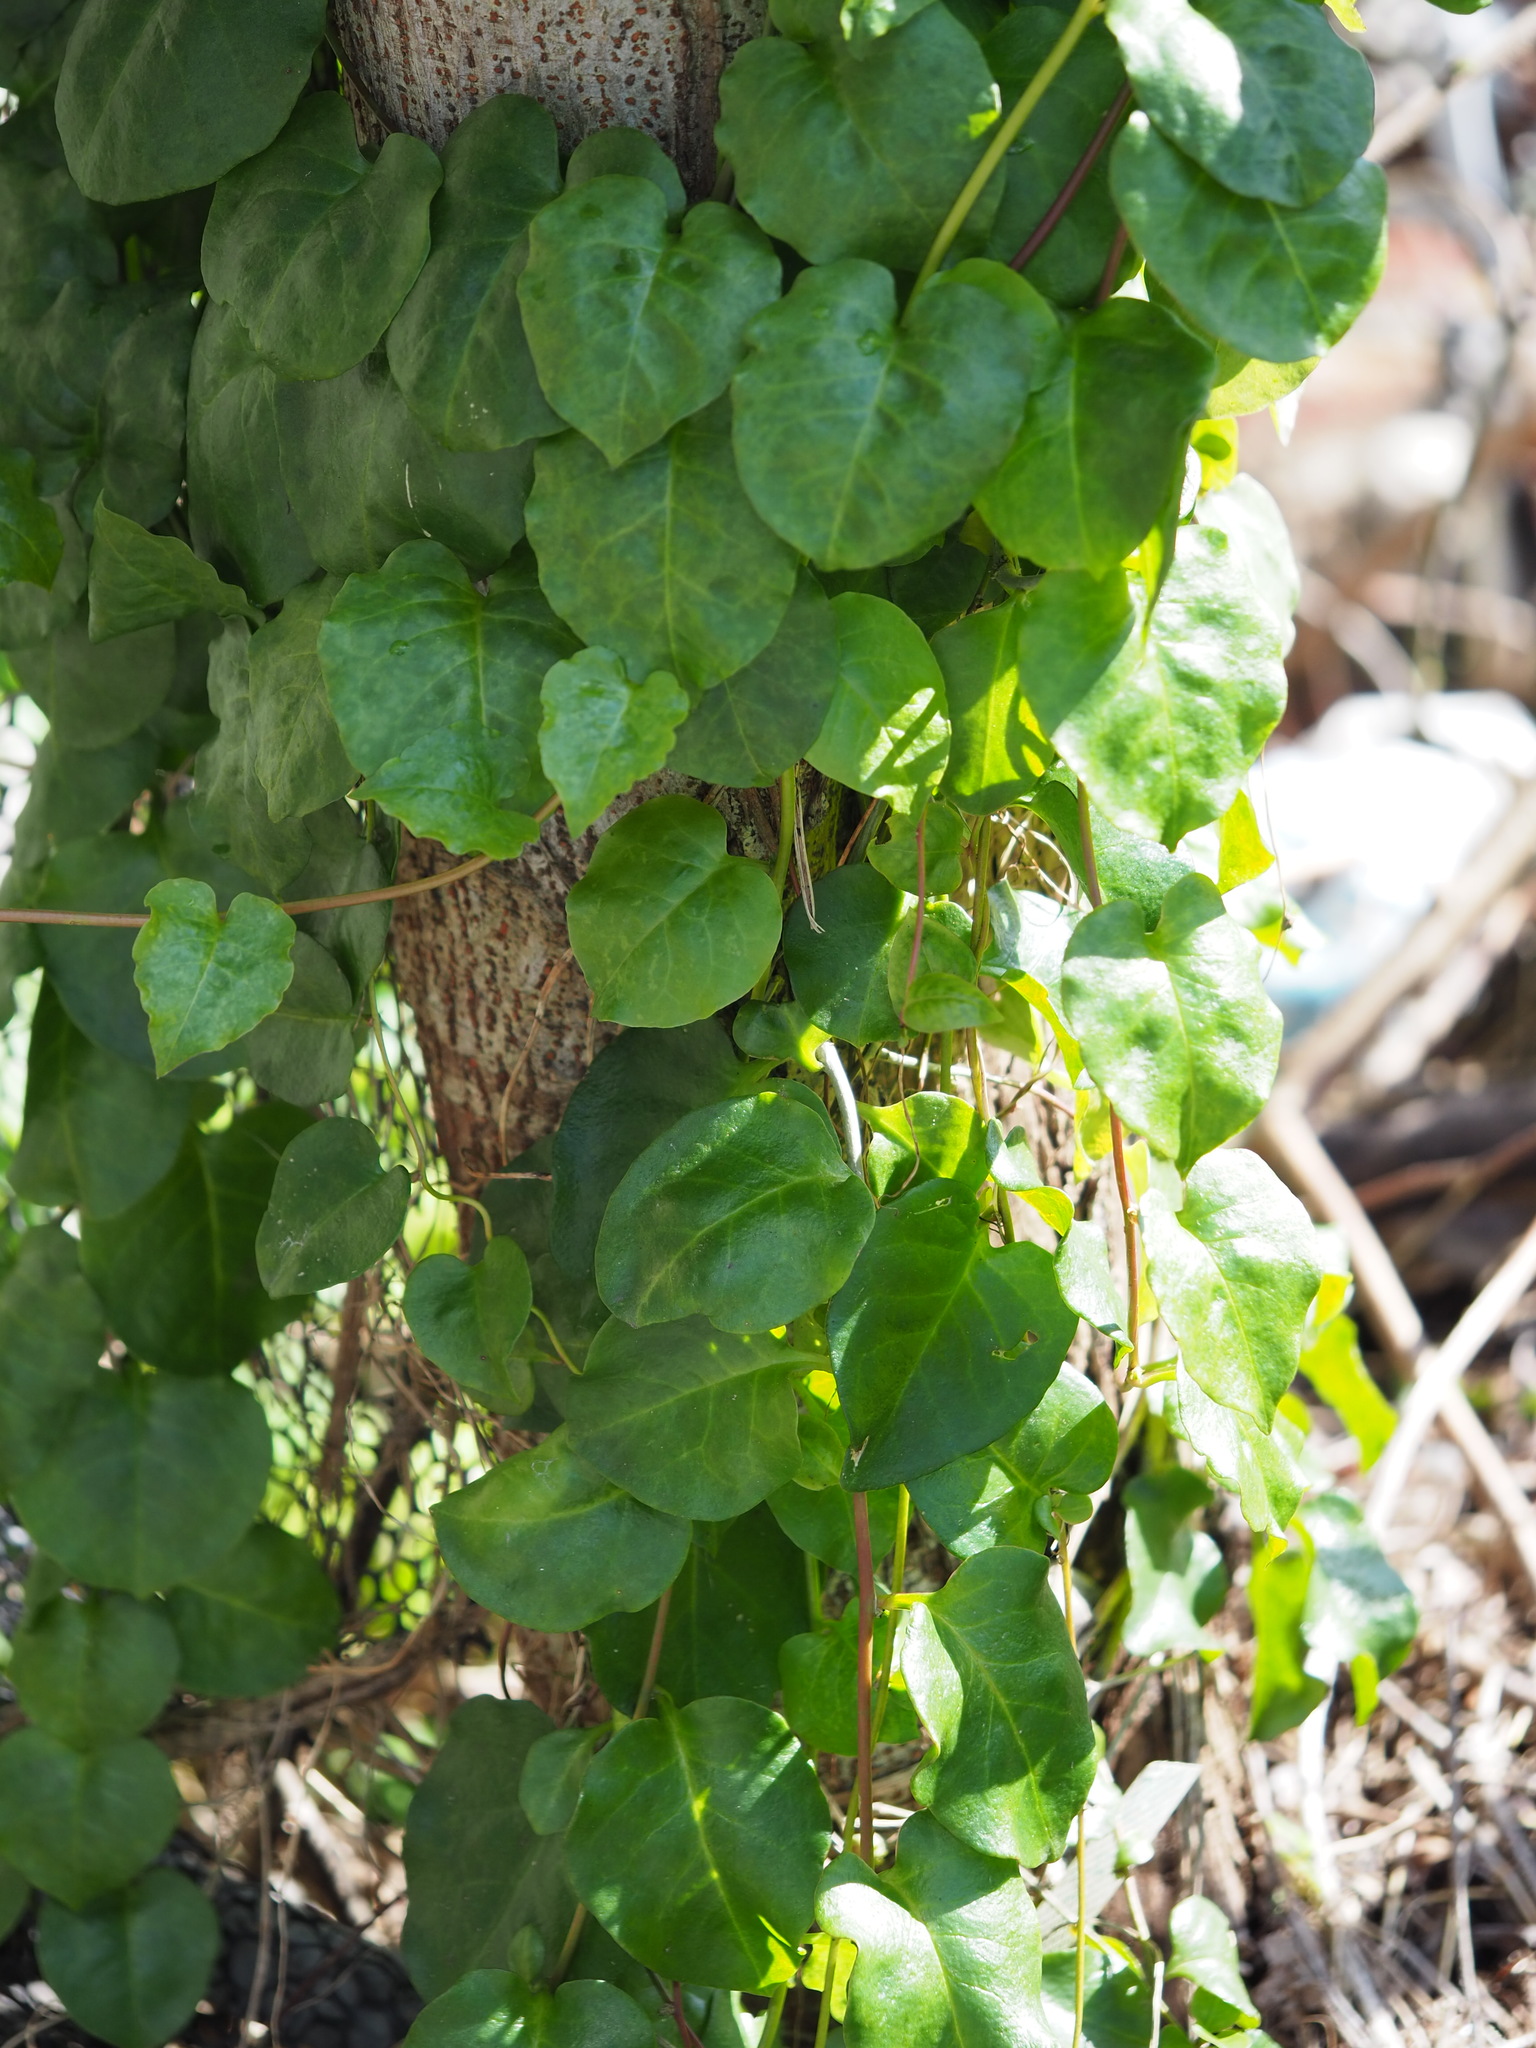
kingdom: Plantae
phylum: Tracheophyta
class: Magnoliopsida
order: Caryophyllales
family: Basellaceae
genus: Anredera
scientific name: Anredera cordifolia
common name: Heartleaf madeiravine
